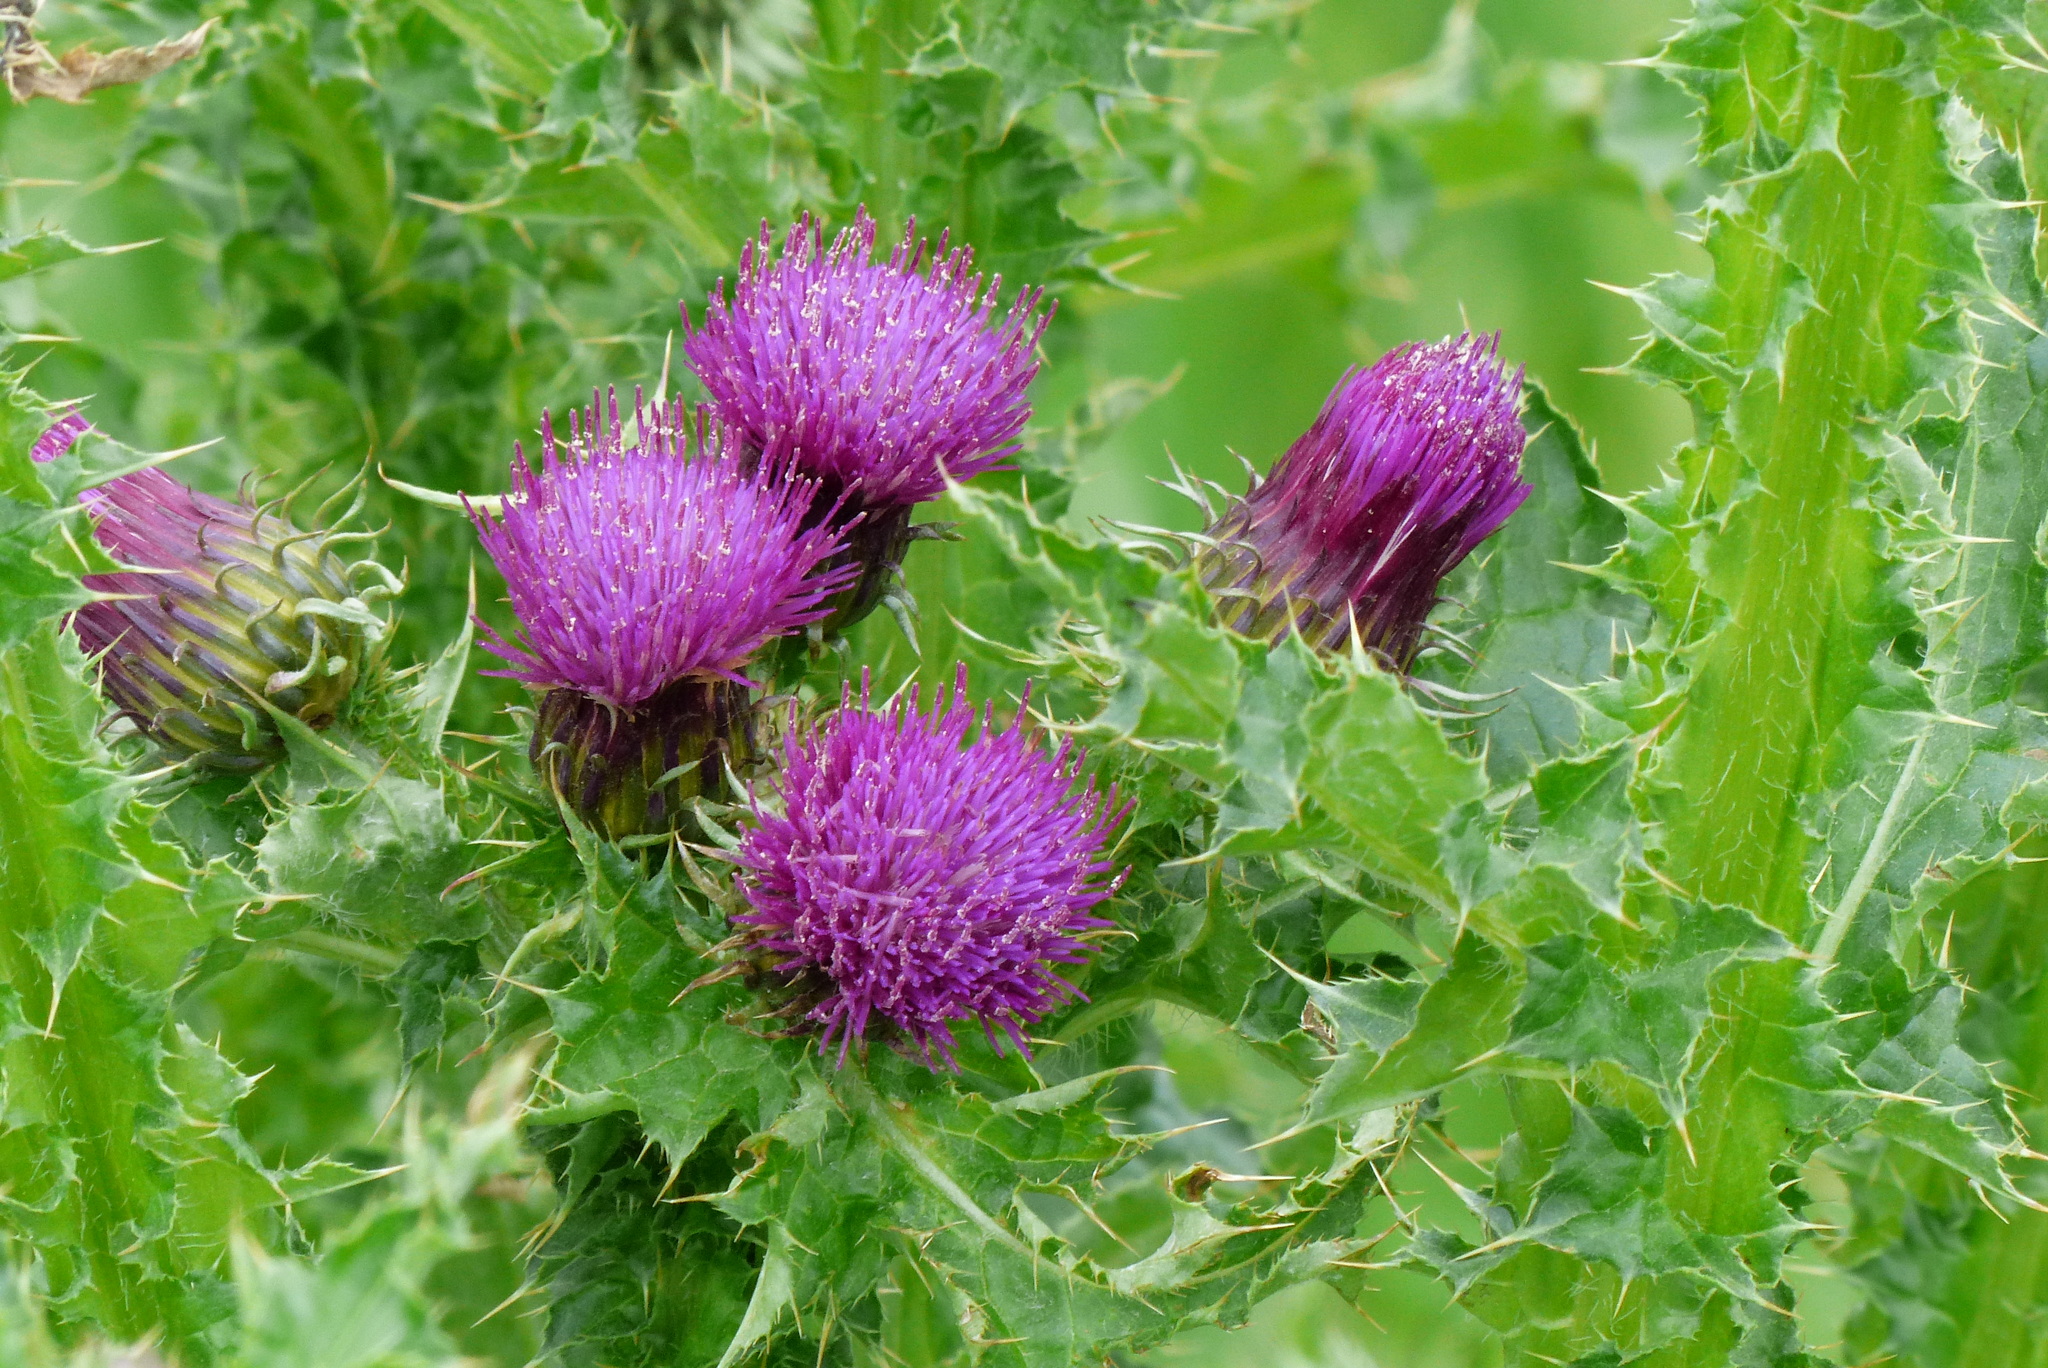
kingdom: Plantae
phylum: Tracheophyta
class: Magnoliopsida
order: Asterales
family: Asteraceae
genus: Carduus
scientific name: Carduus crispus
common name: Welted thistle
